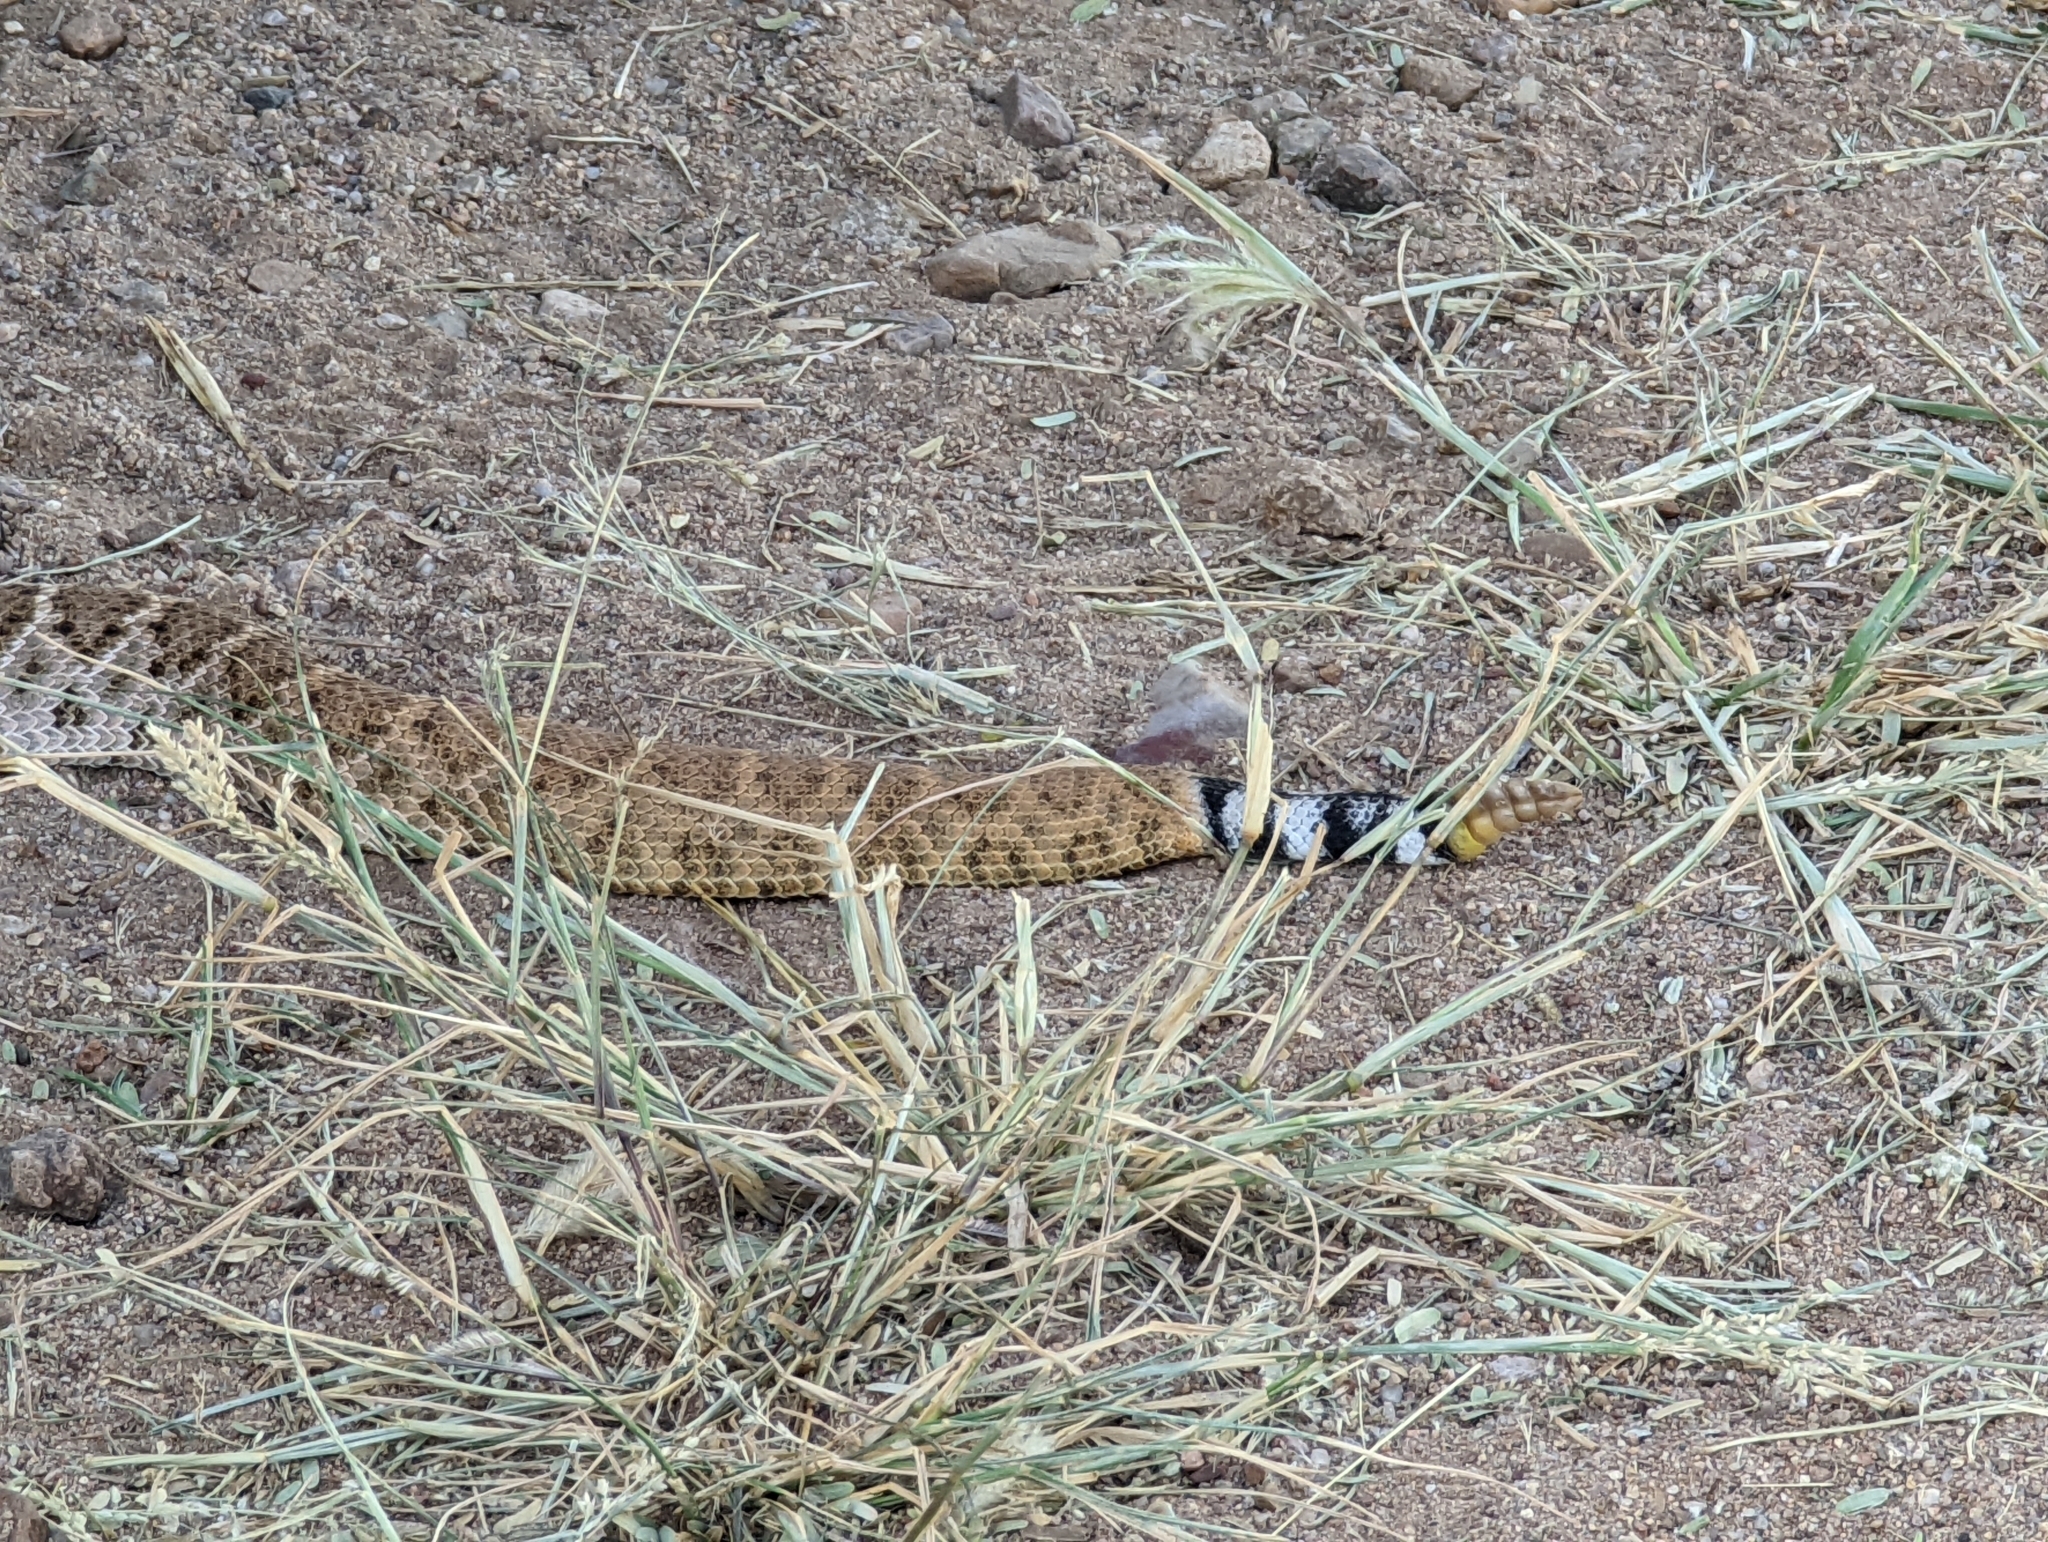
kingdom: Animalia
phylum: Chordata
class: Squamata
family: Viperidae
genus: Crotalus
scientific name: Crotalus atrox
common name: Western diamond-backed rattlesnake
